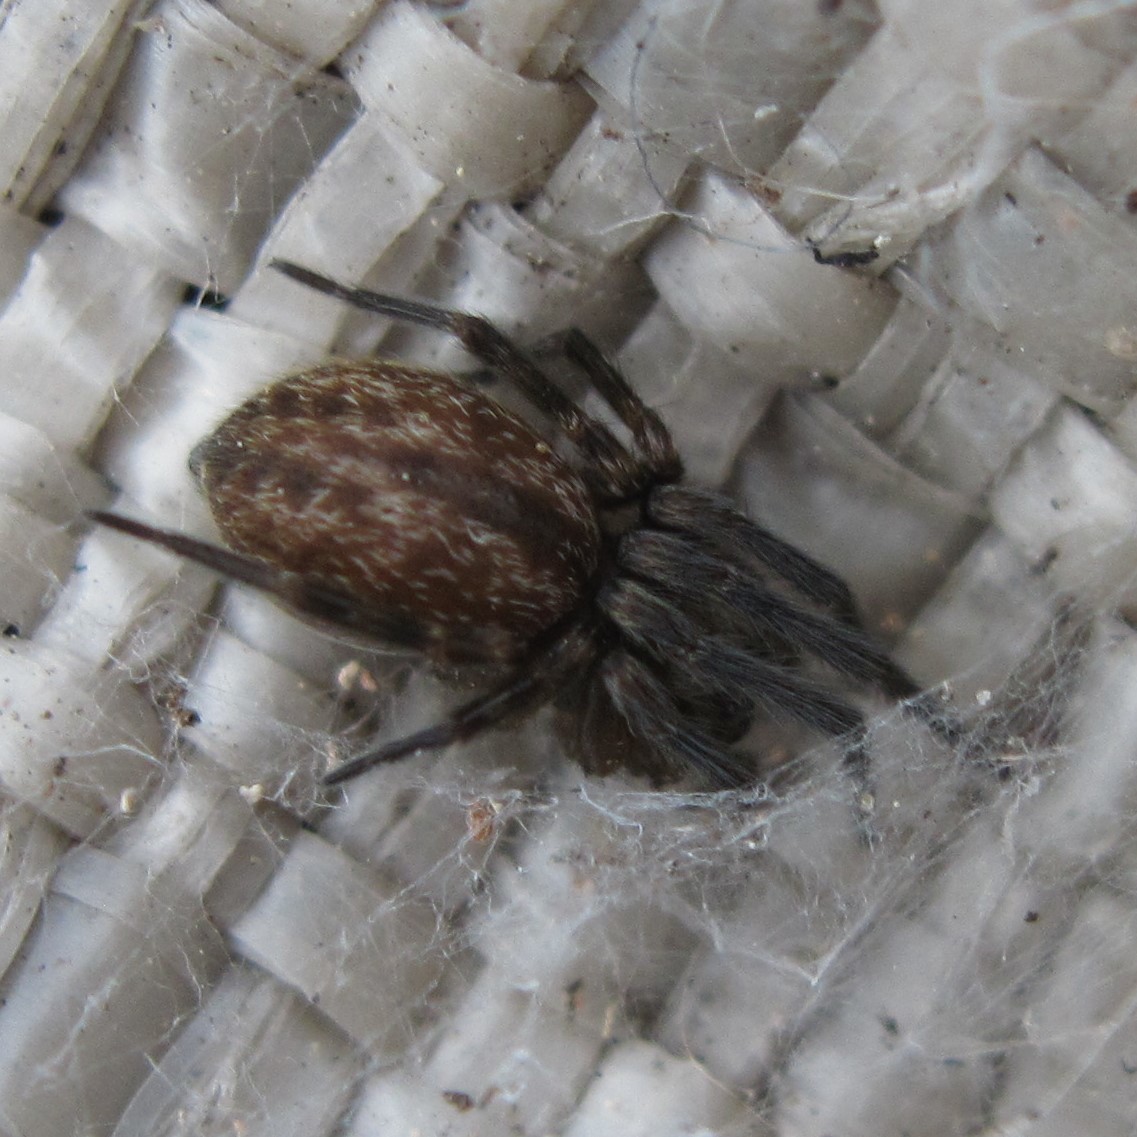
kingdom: Animalia
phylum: Arthropoda
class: Arachnida
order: Araneae
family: Desidae
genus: Badumna
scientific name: Badumna longinqua
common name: Gray house spider
